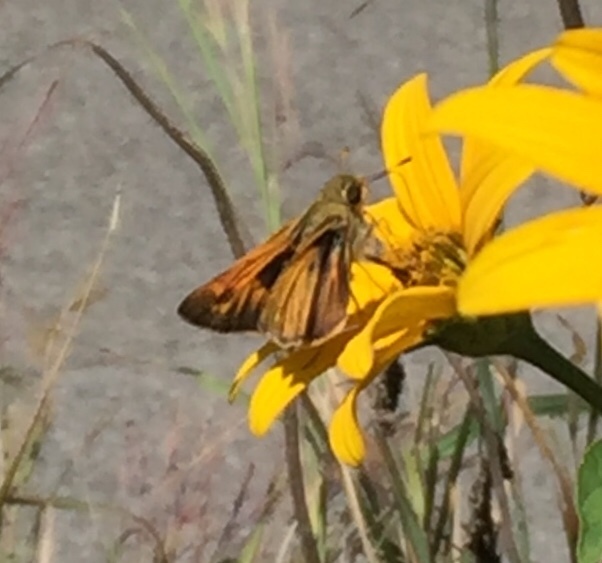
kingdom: Animalia
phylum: Arthropoda
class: Insecta
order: Lepidoptera
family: Hesperiidae
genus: Atalopedes
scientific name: Atalopedes
